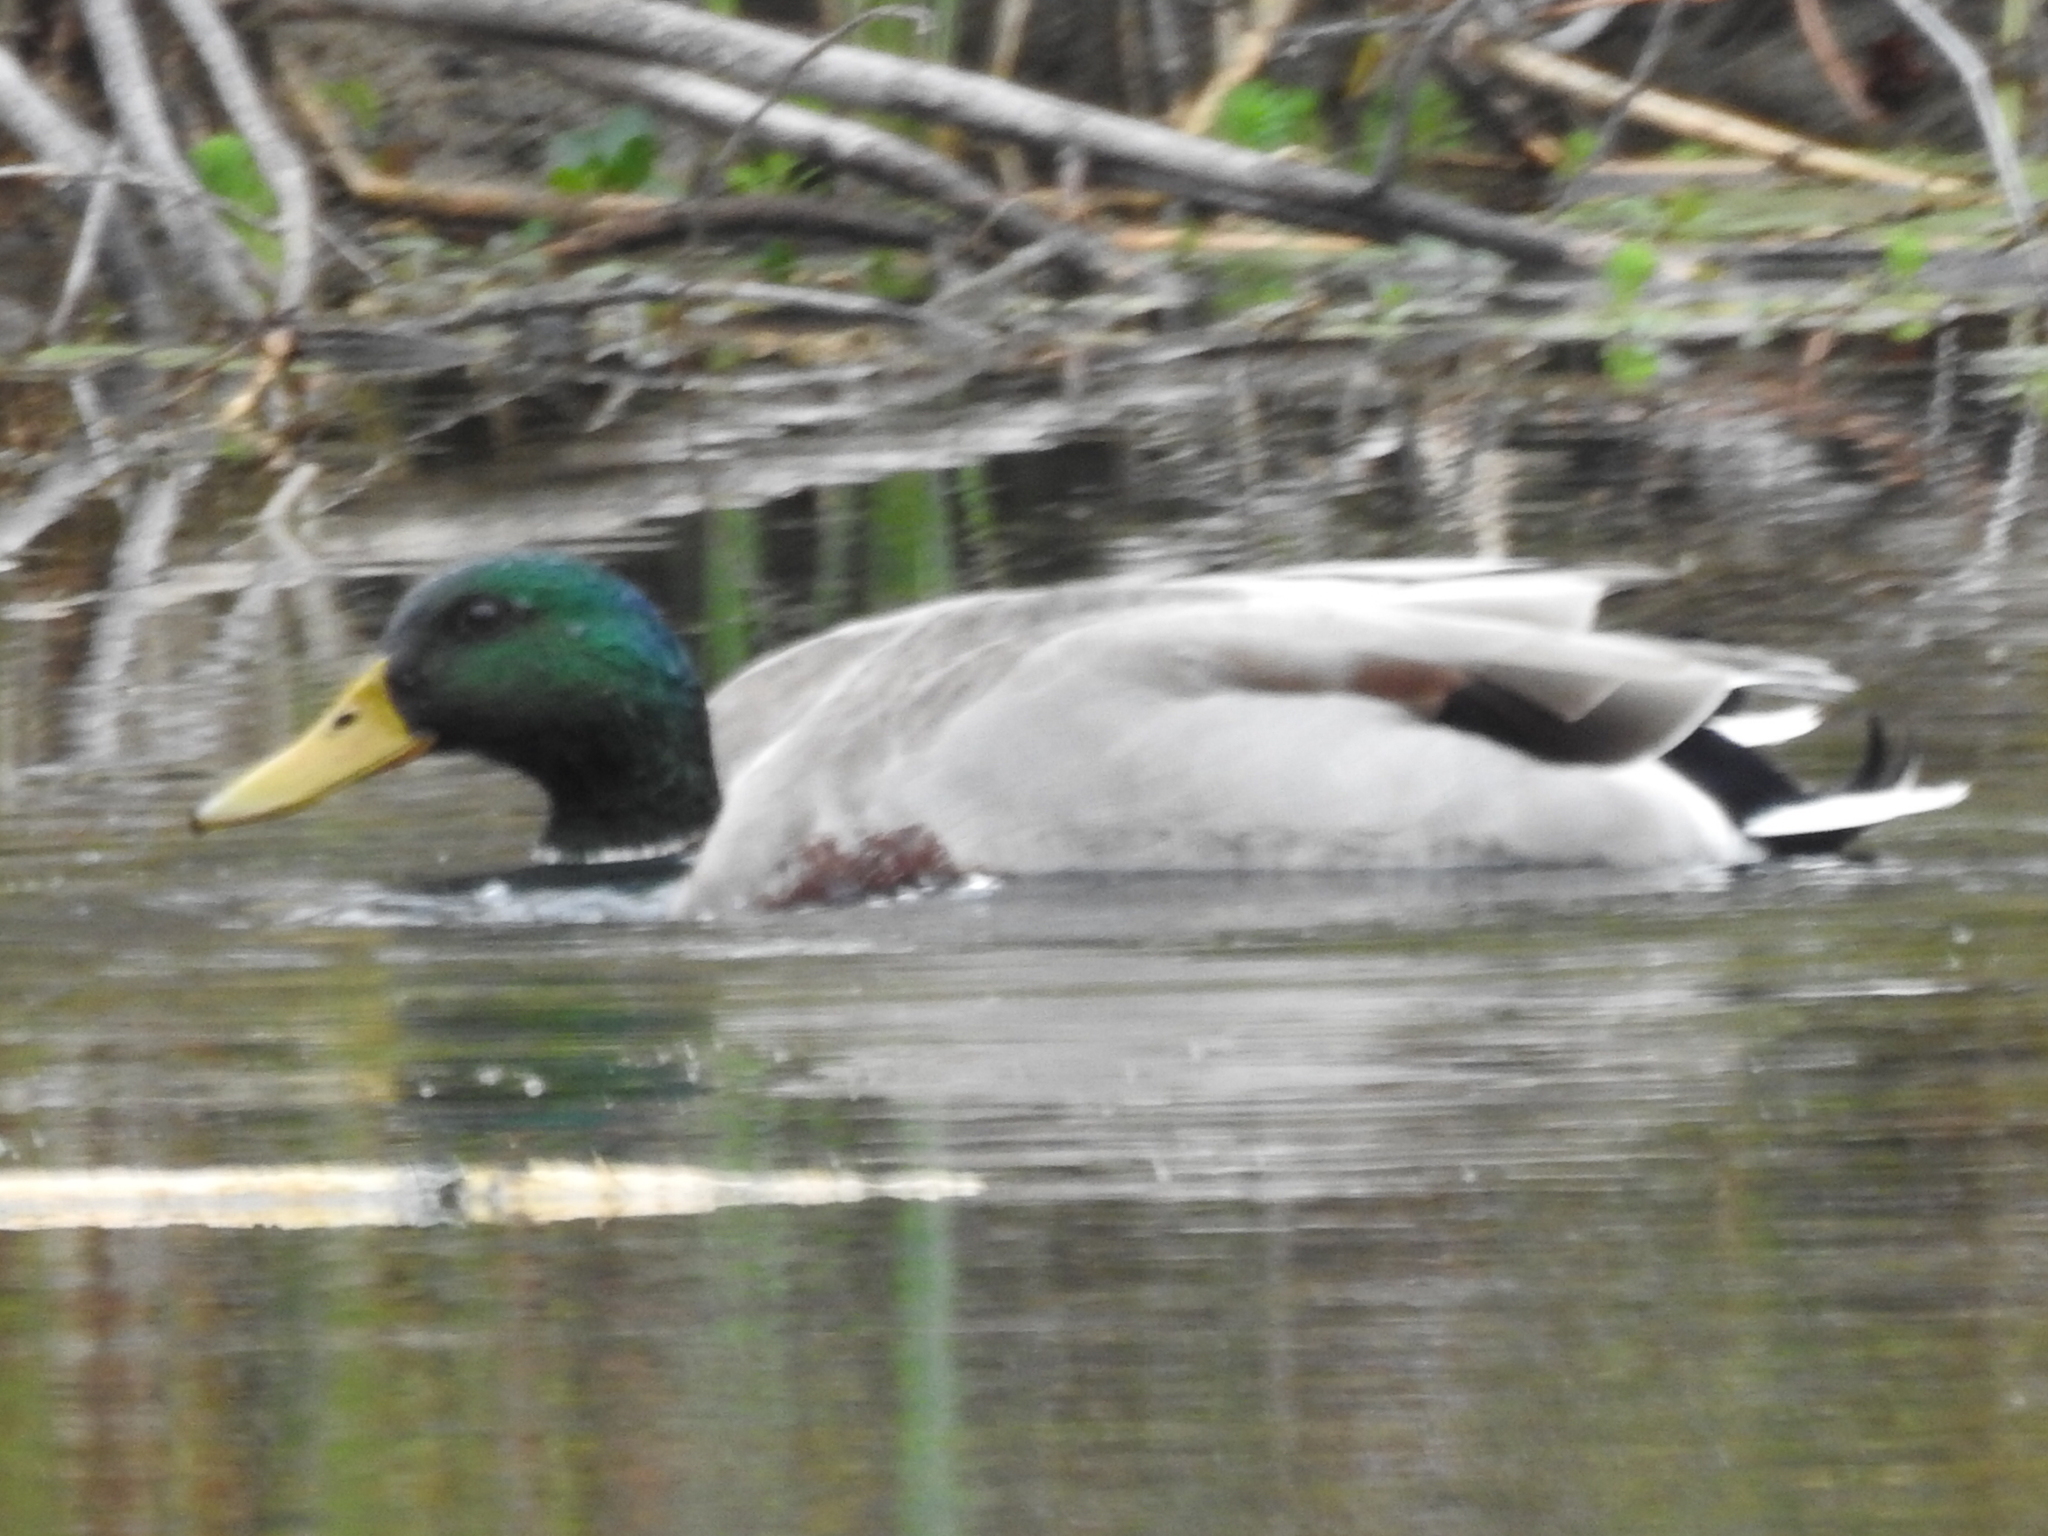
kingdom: Animalia
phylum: Chordata
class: Aves
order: Anseriformes
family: Anatidae
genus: Anas
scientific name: Anas platyrhynchos
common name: Mallard
